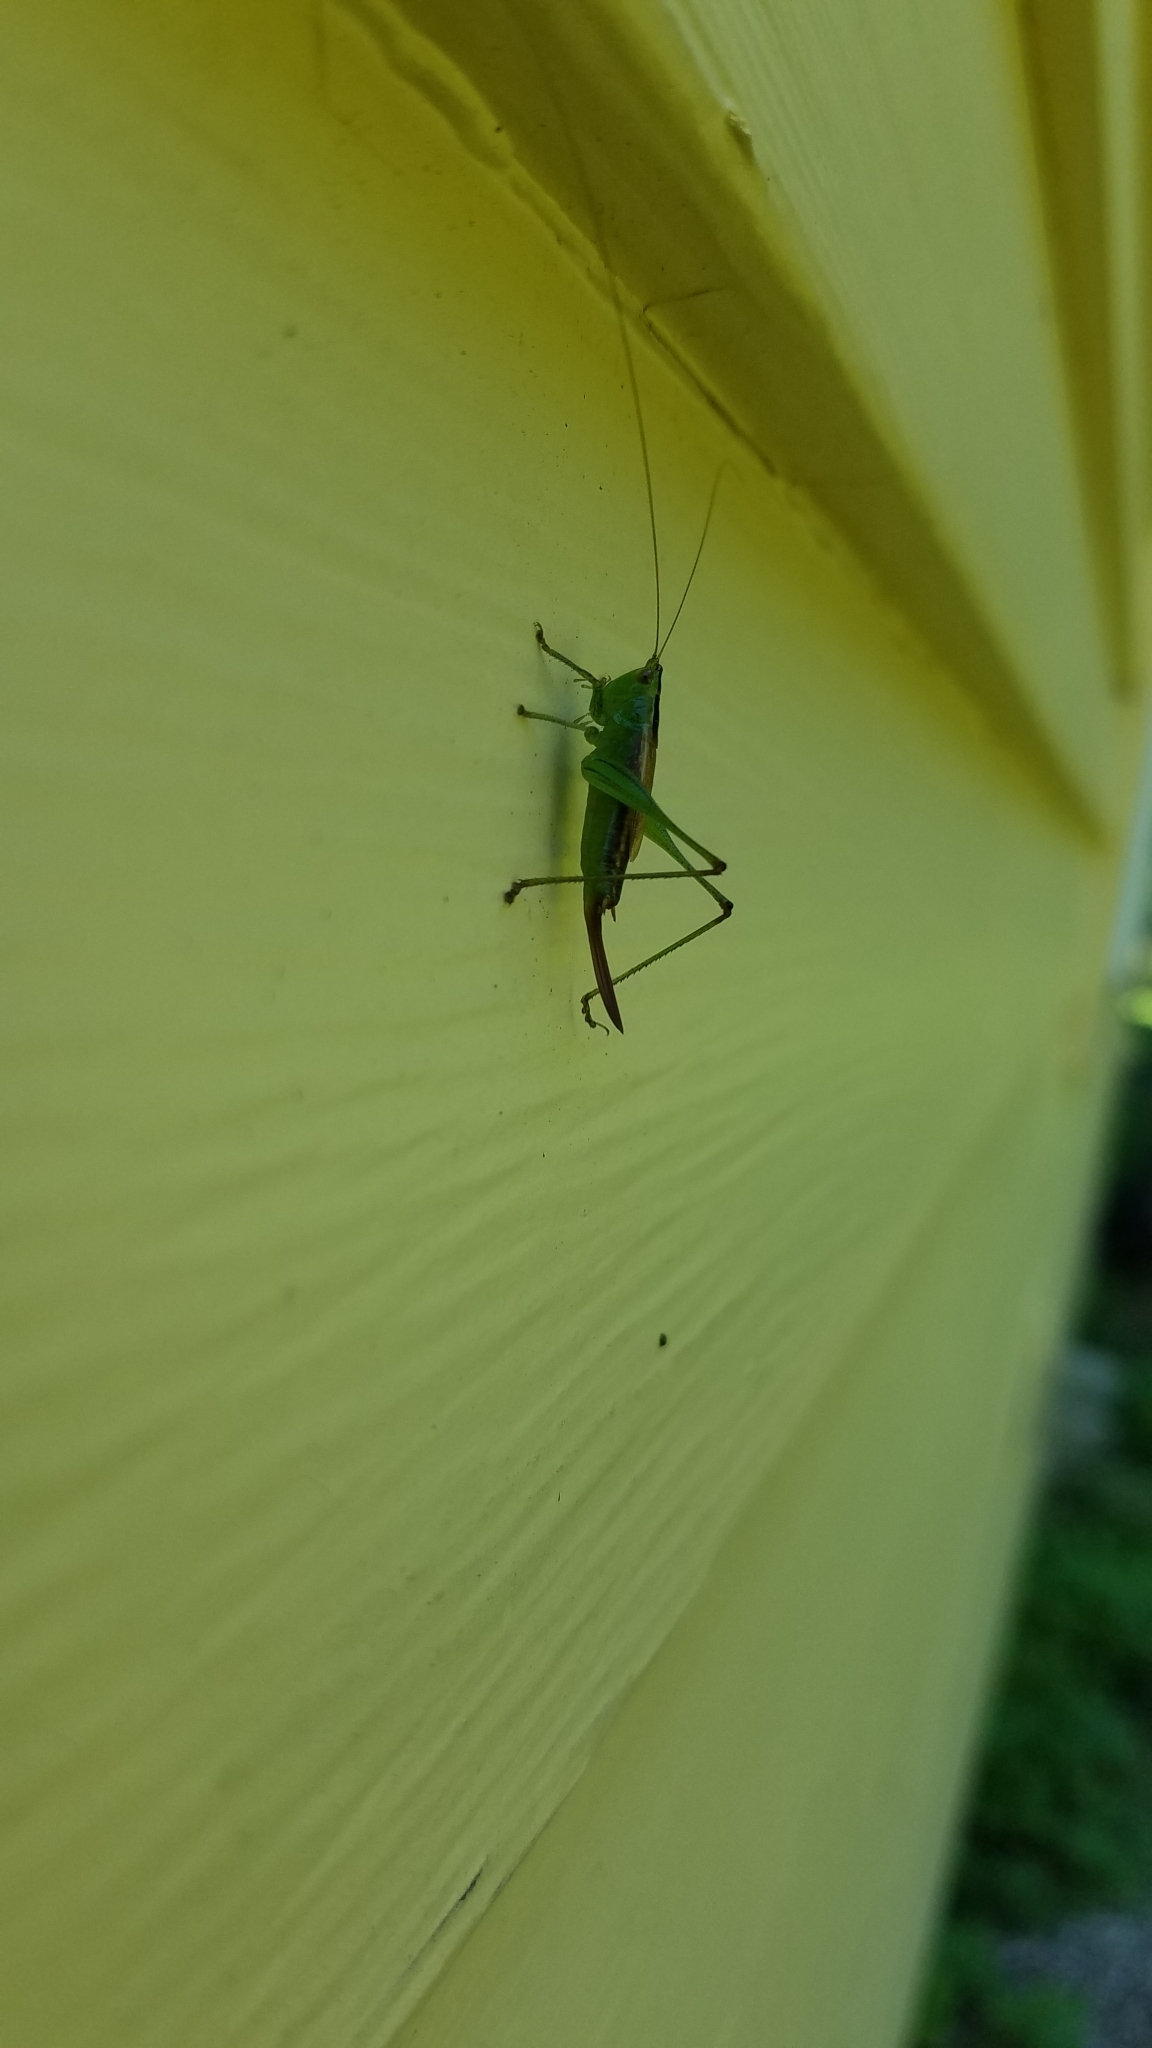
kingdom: Animalia
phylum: Arthropoda
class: Insecta
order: Orthoptera
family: Tettigoniidae
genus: Conocephalus
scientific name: Conocephalus brevipennis
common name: Short-winged meadow katydid
